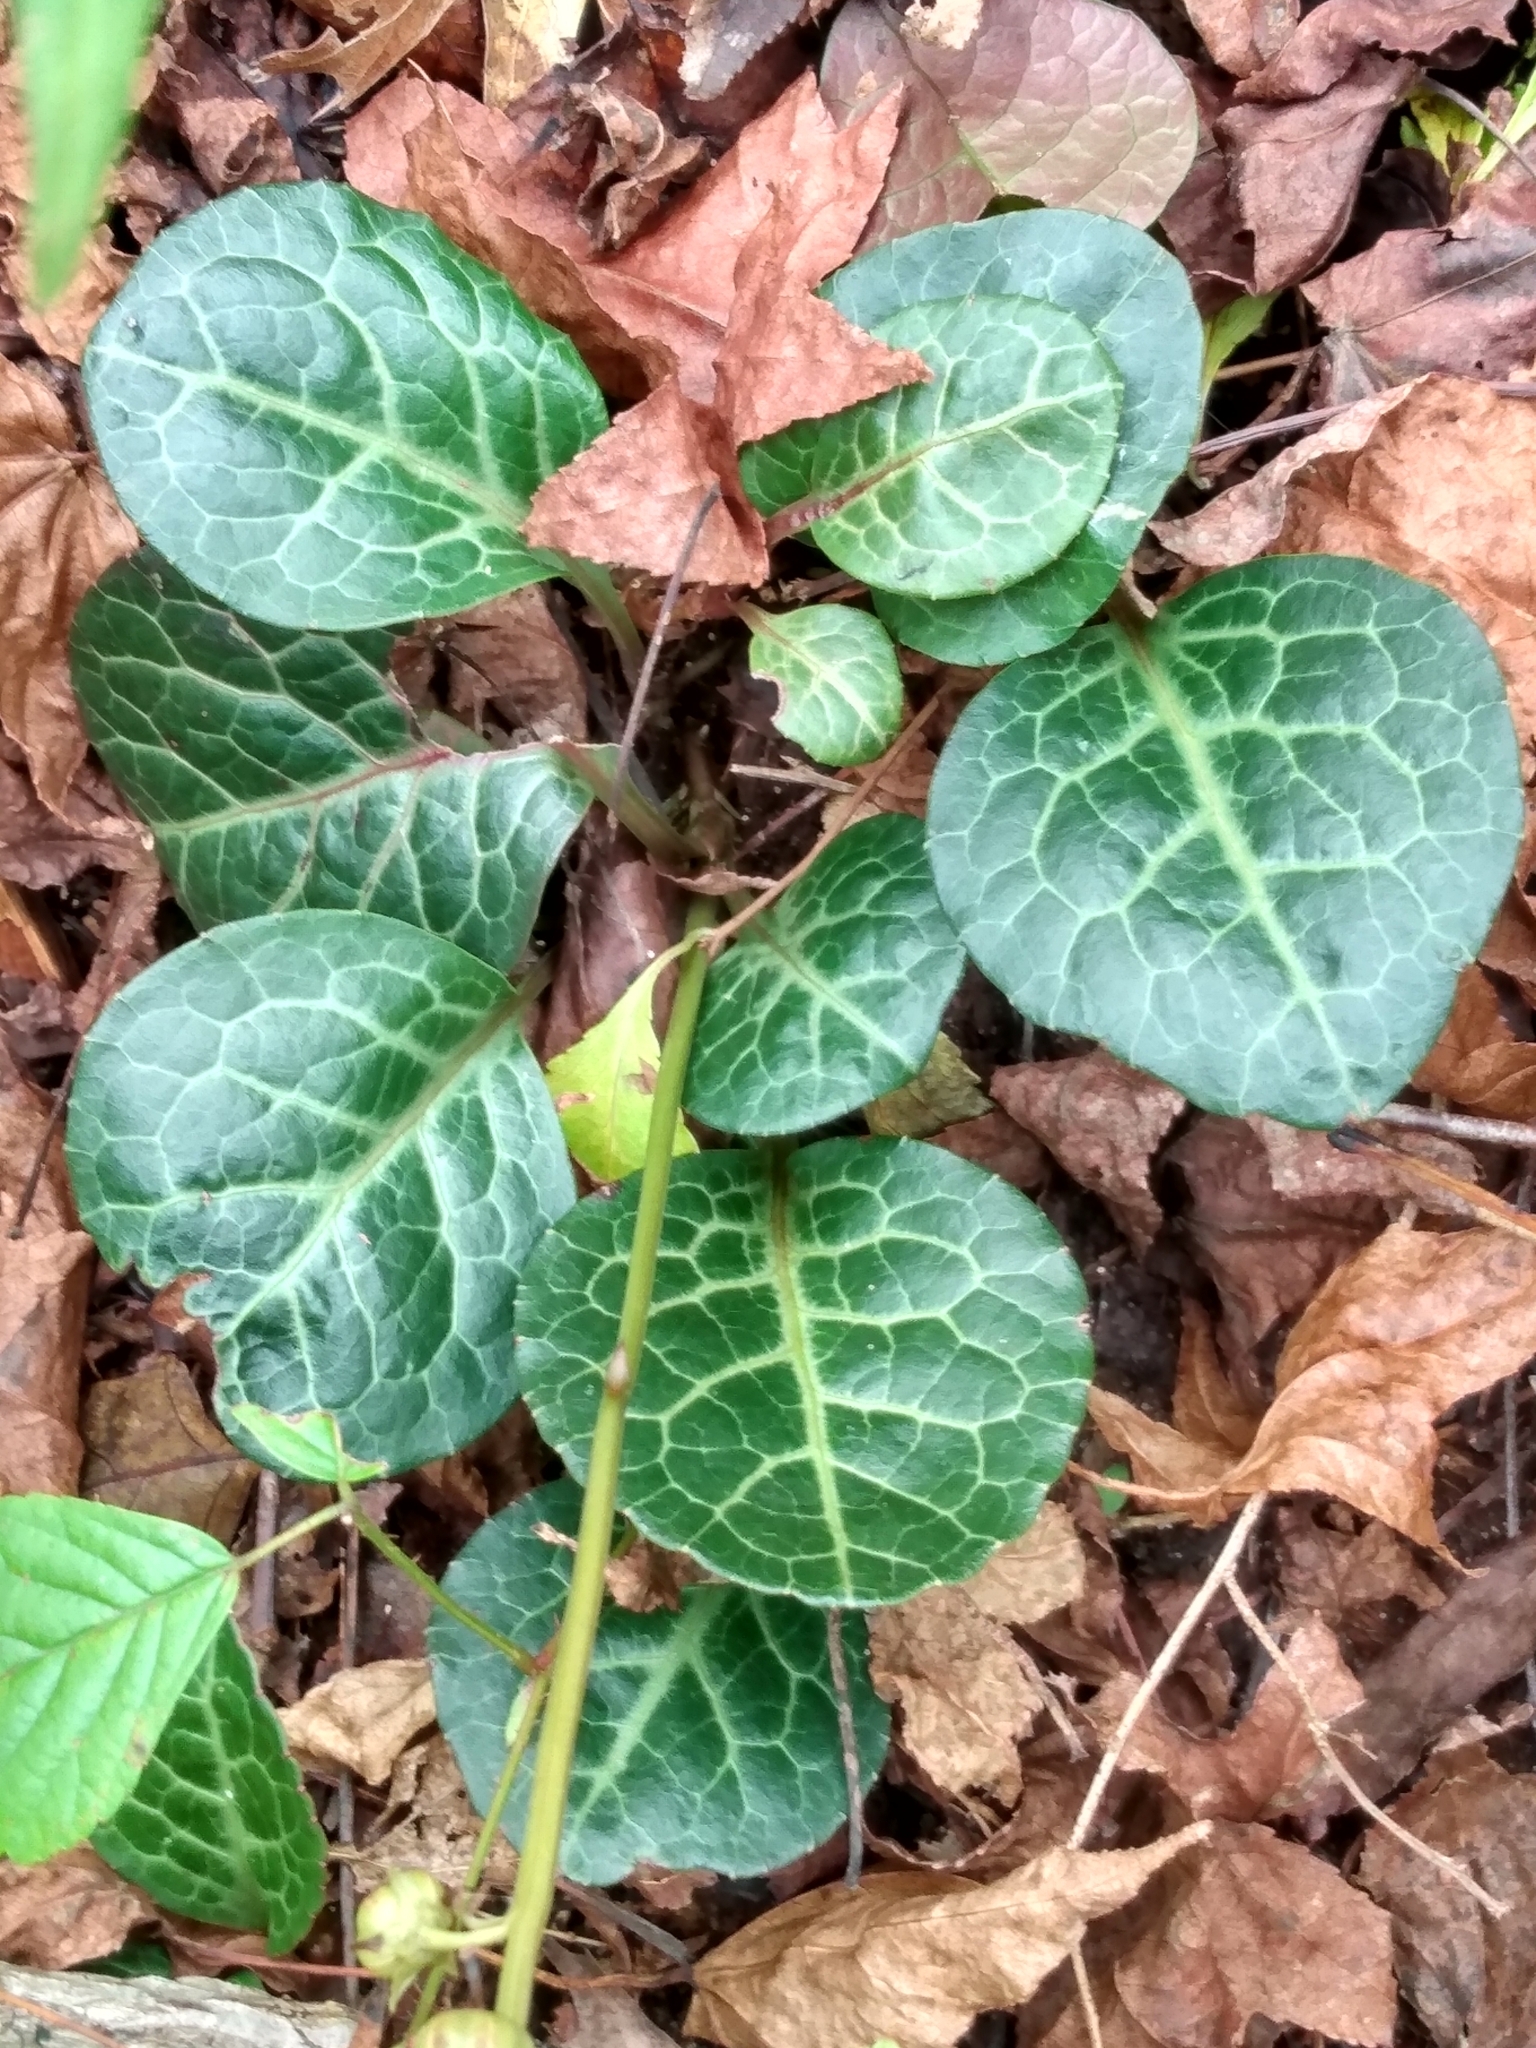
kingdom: Plantae
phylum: Tracheophyta
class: Magnoliopsida
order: Ericales
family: Ericaceae
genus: Pyrola
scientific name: Pyrola americana
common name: American wintergreen
